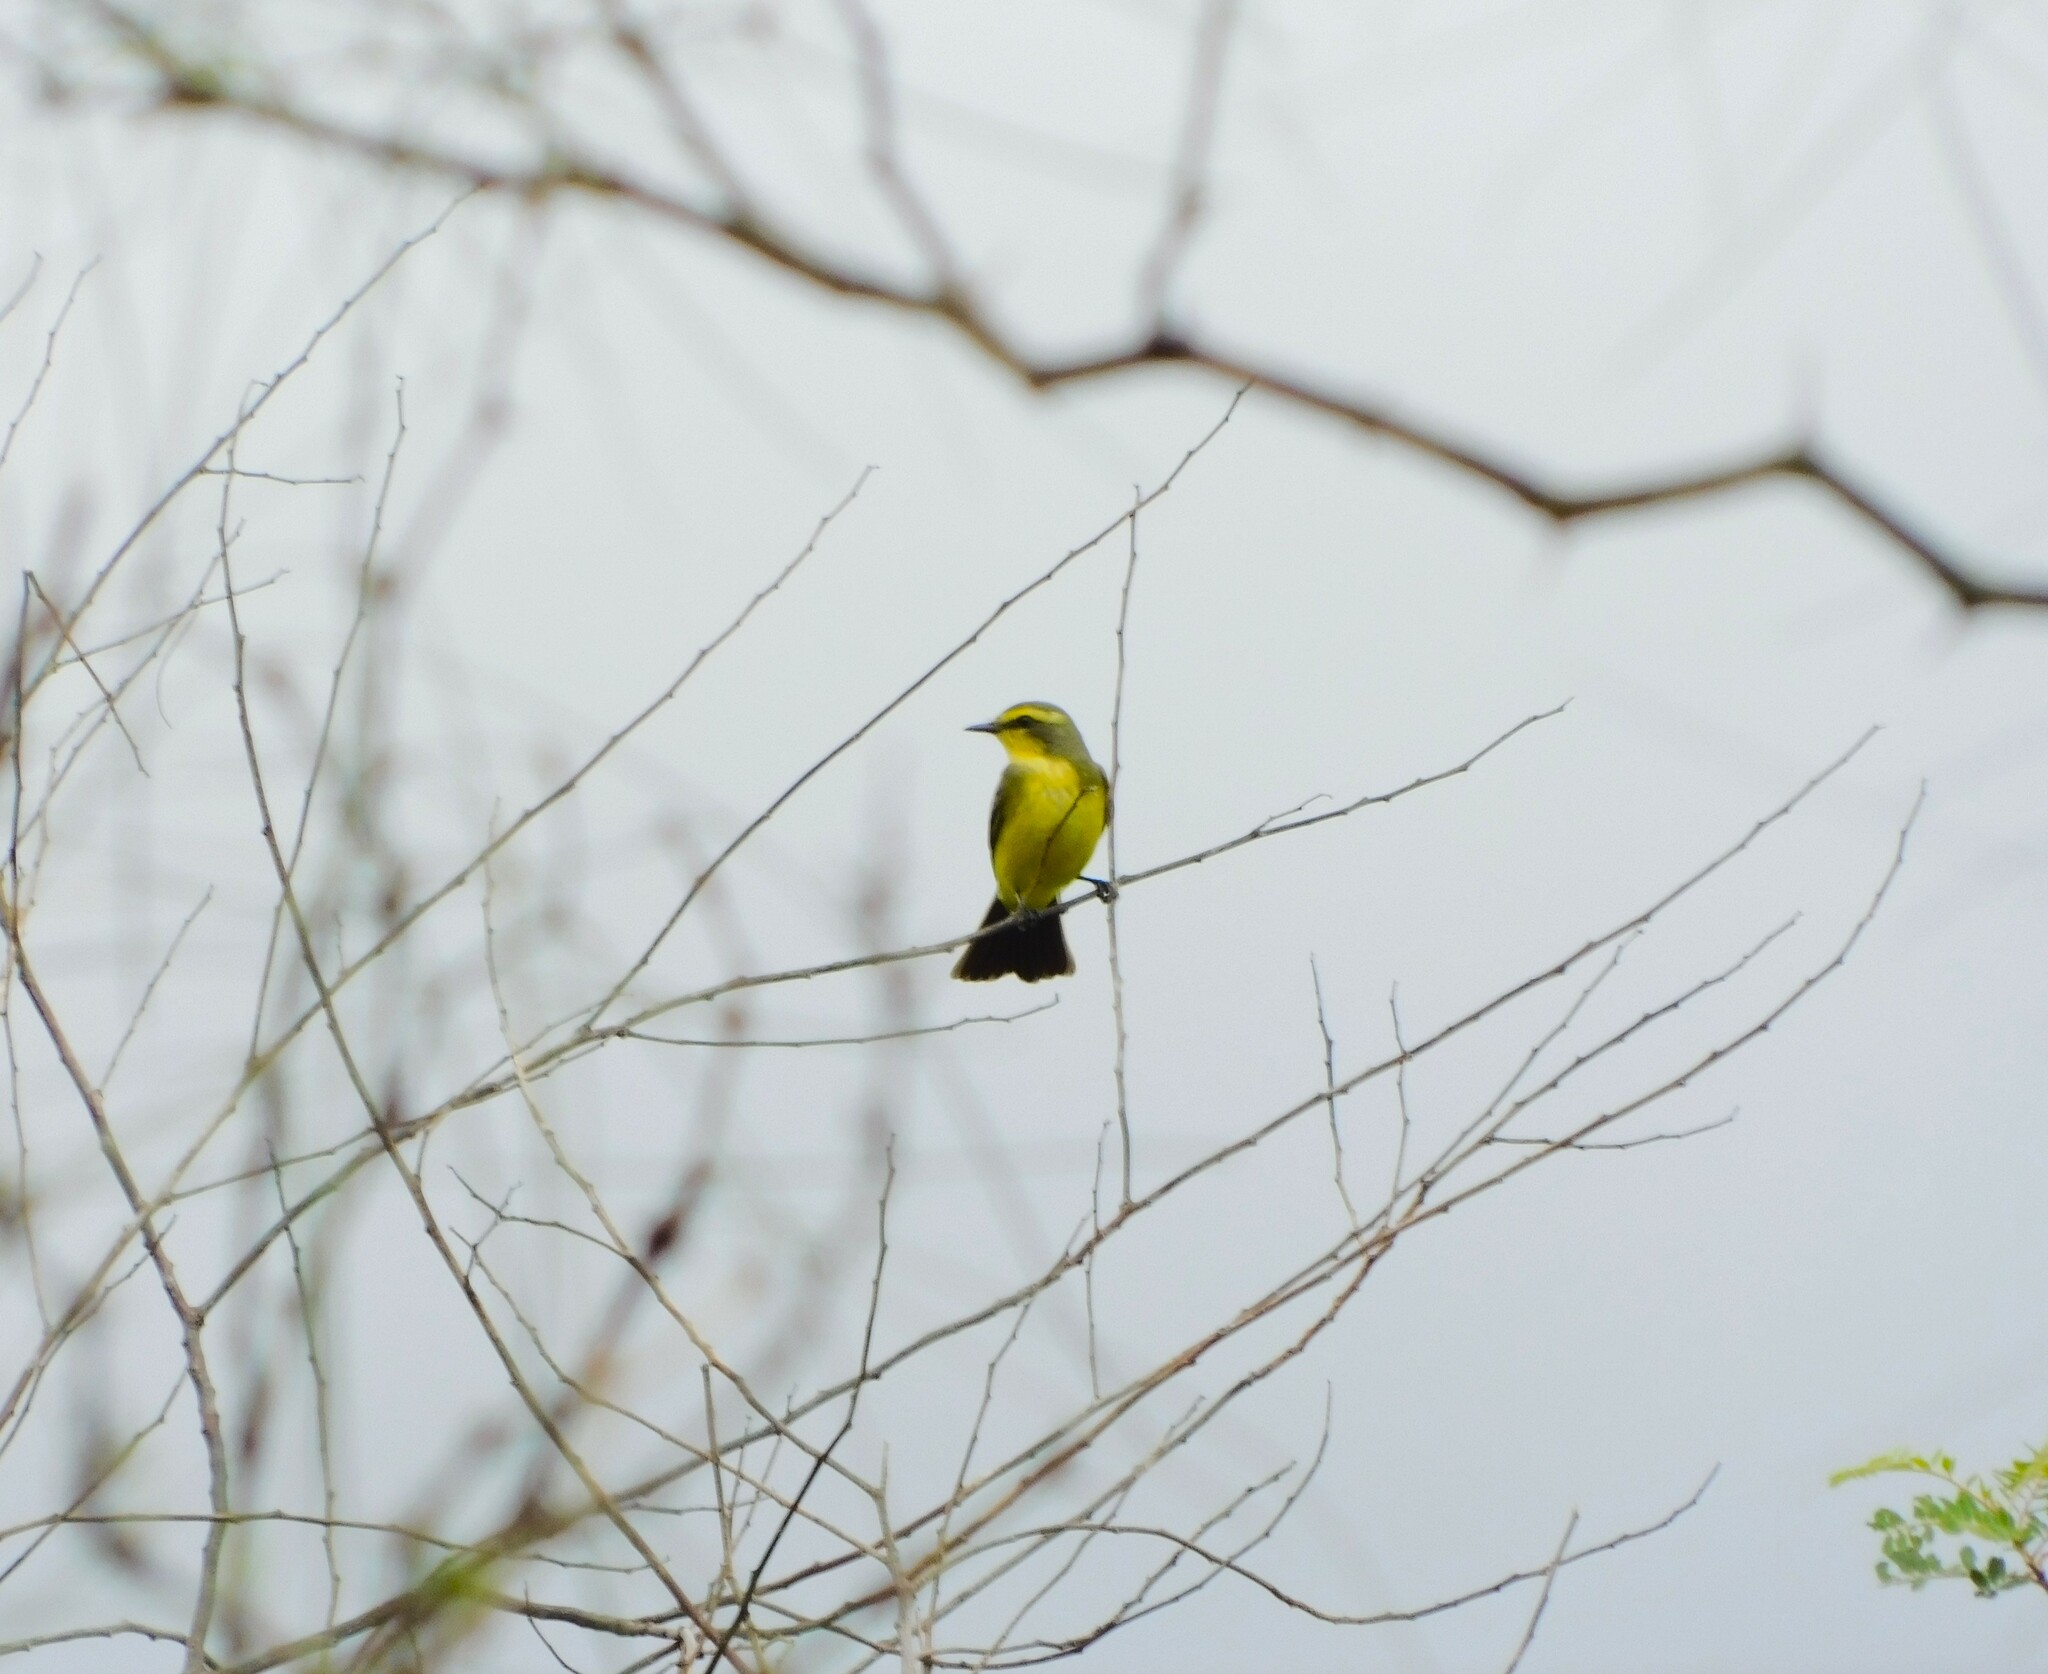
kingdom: Animalia
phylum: Chordata
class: Aves
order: Passeriformes
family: Tyrannidae
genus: Satrapa
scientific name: Satrapa icterophrys
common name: Yellow-browed tyrant
